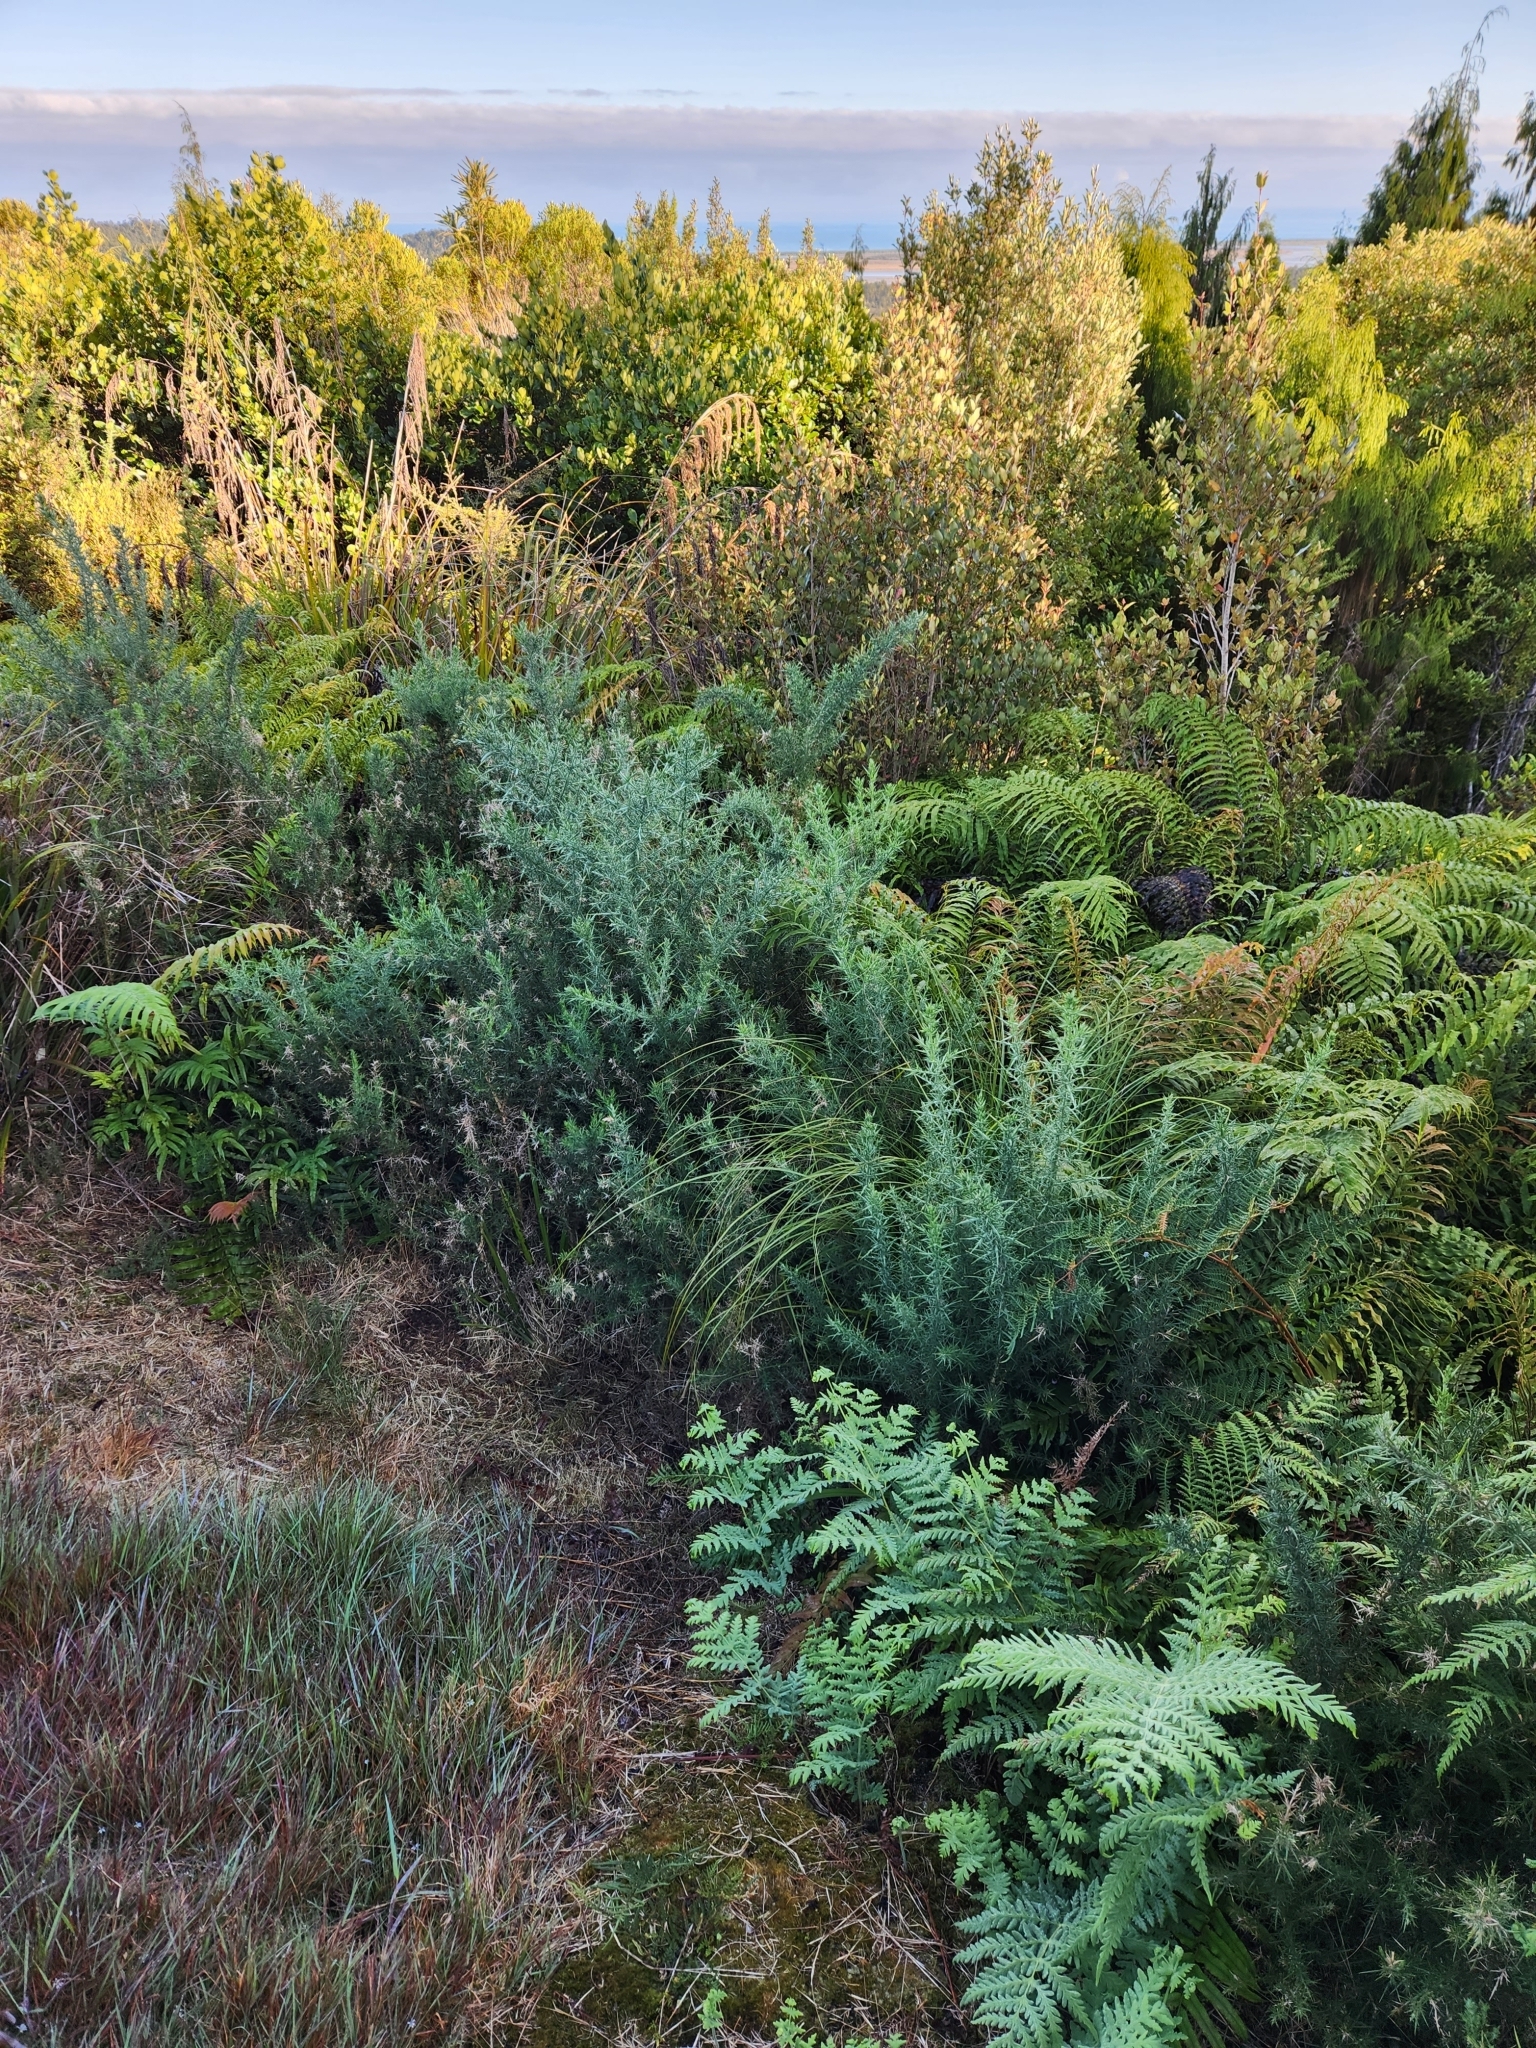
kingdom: Plantae
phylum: Tracheophyta
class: Magnoliopsida
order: Fabales
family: Fabaceae
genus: Ulex
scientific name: Ulex europaeus
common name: Common gorse
